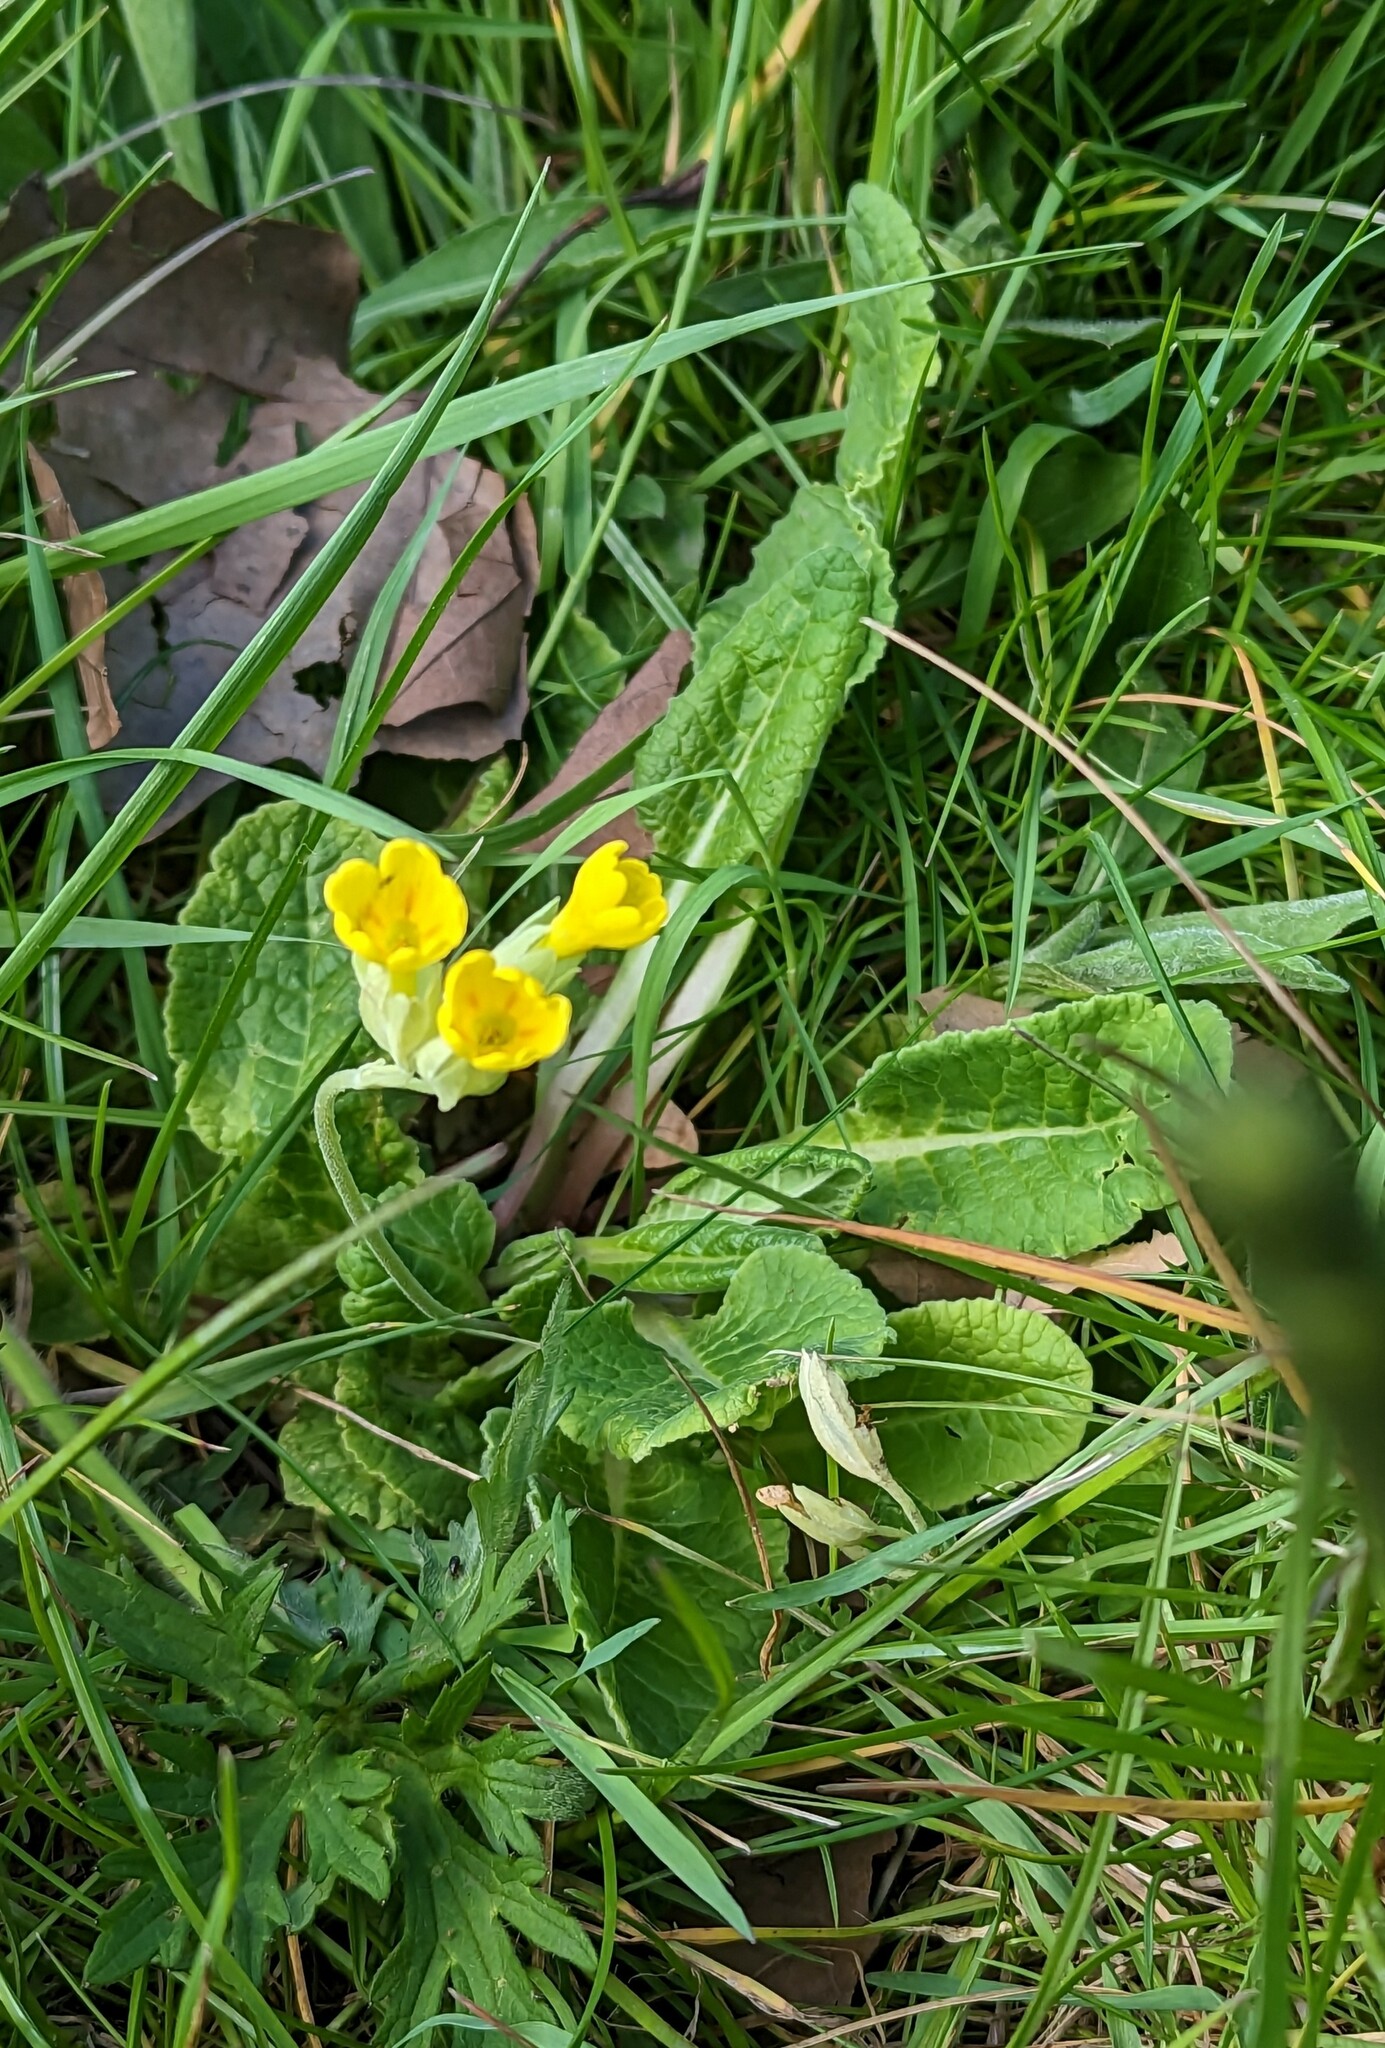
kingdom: Plantae
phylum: Tracheophyta
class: Magnoliopsida
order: Ericales
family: Primulaceae
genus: Primula
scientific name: Primula veris
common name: Cowslip
